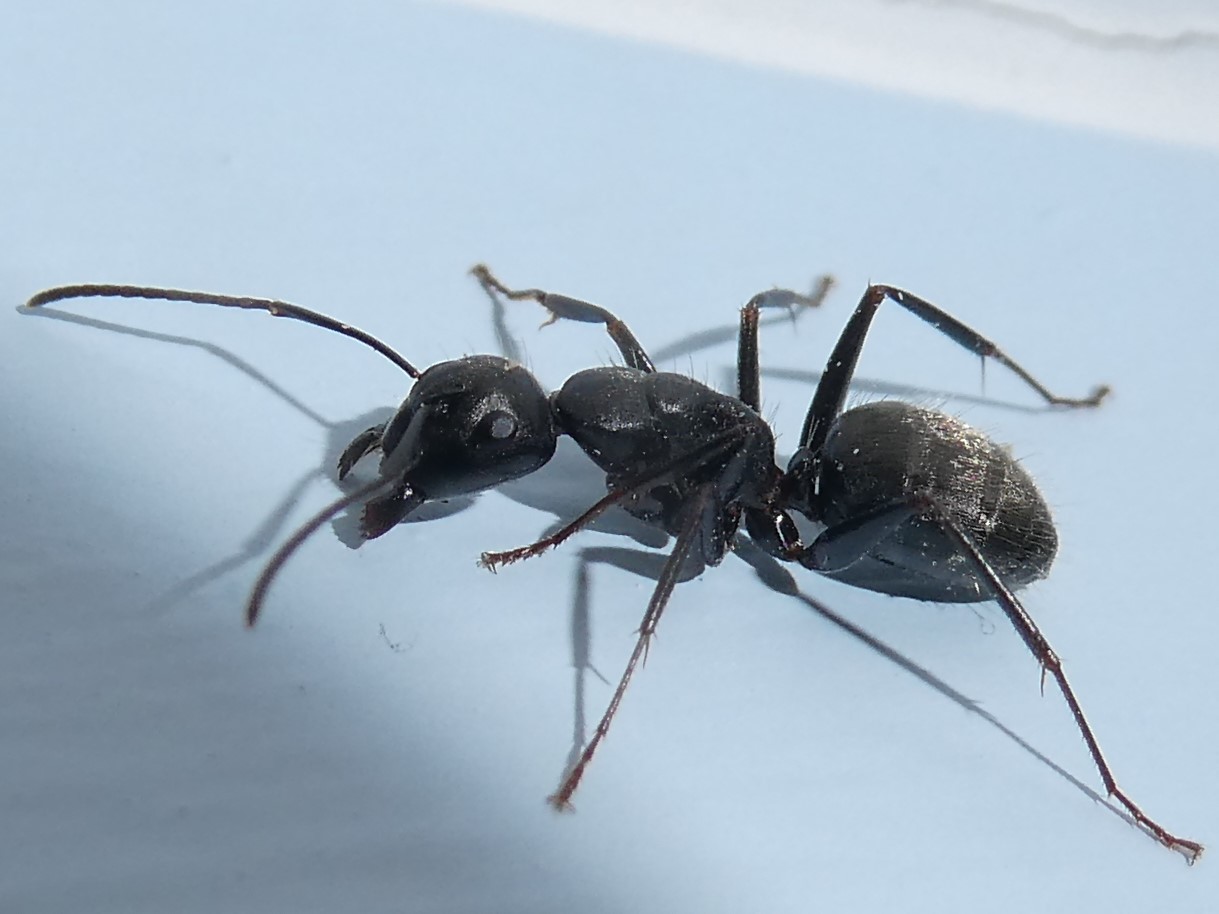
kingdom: Animalia
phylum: Arthropoda
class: Insecta
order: Hymenoptera
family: Formicidae
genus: Camponotus
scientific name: Camponotus pennsylvanicus
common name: Black carpenter ant
